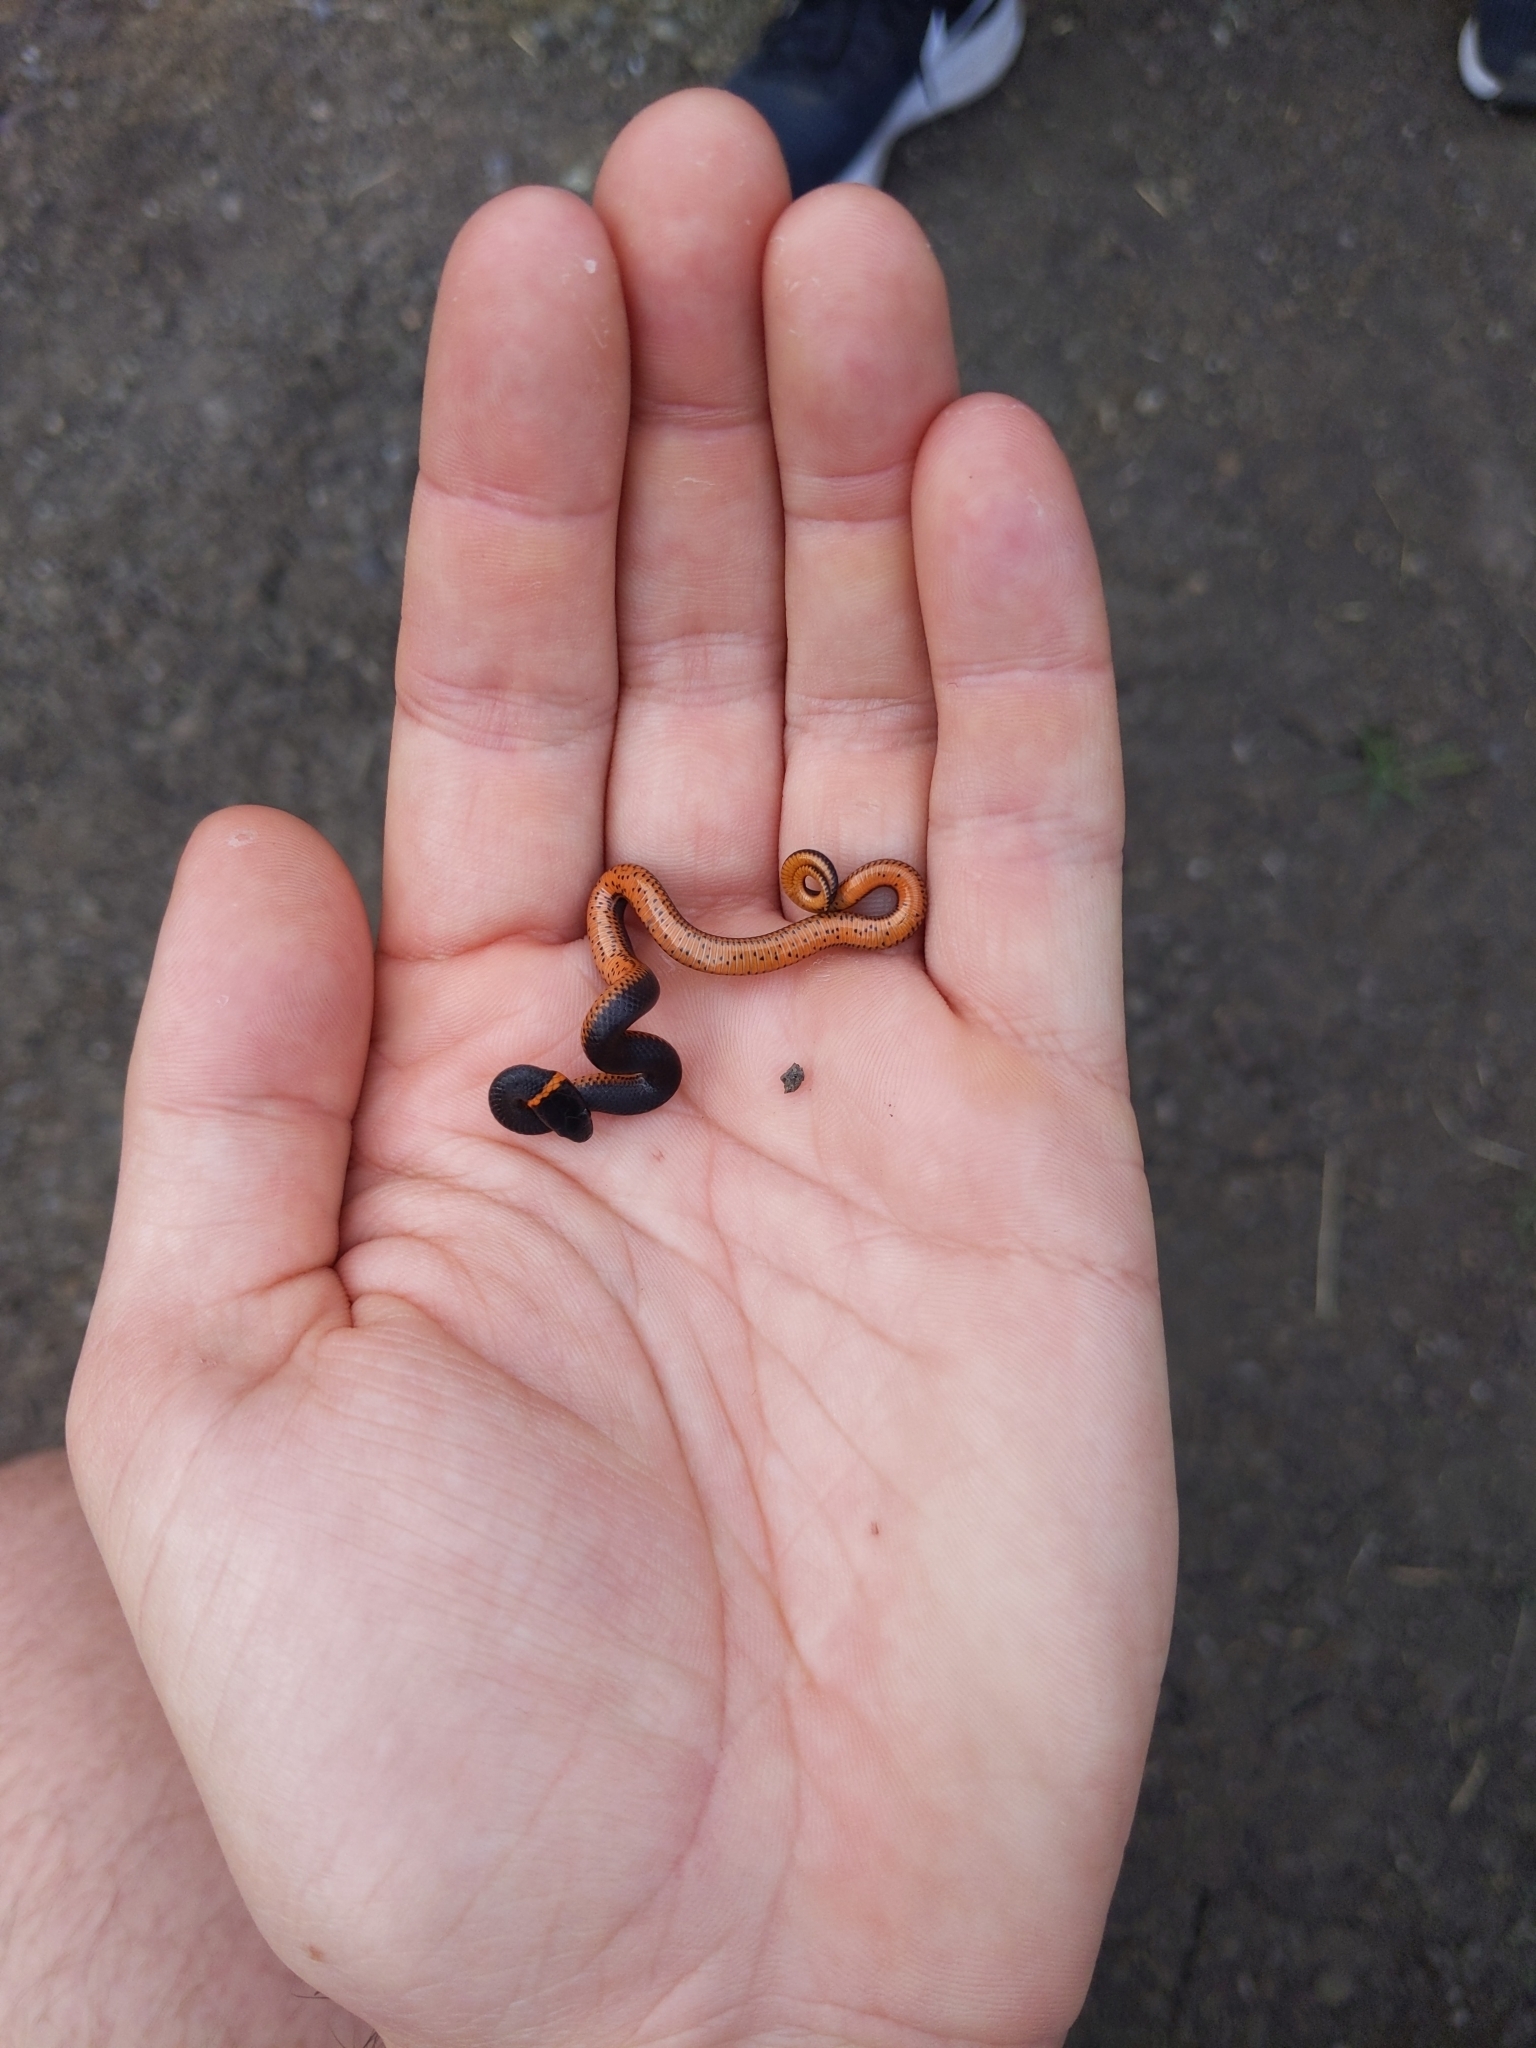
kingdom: Animalia
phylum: Chordata
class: Squamata
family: Colubridae
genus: Diadophis
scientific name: Diadophis punctatus
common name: Ringneck snake
